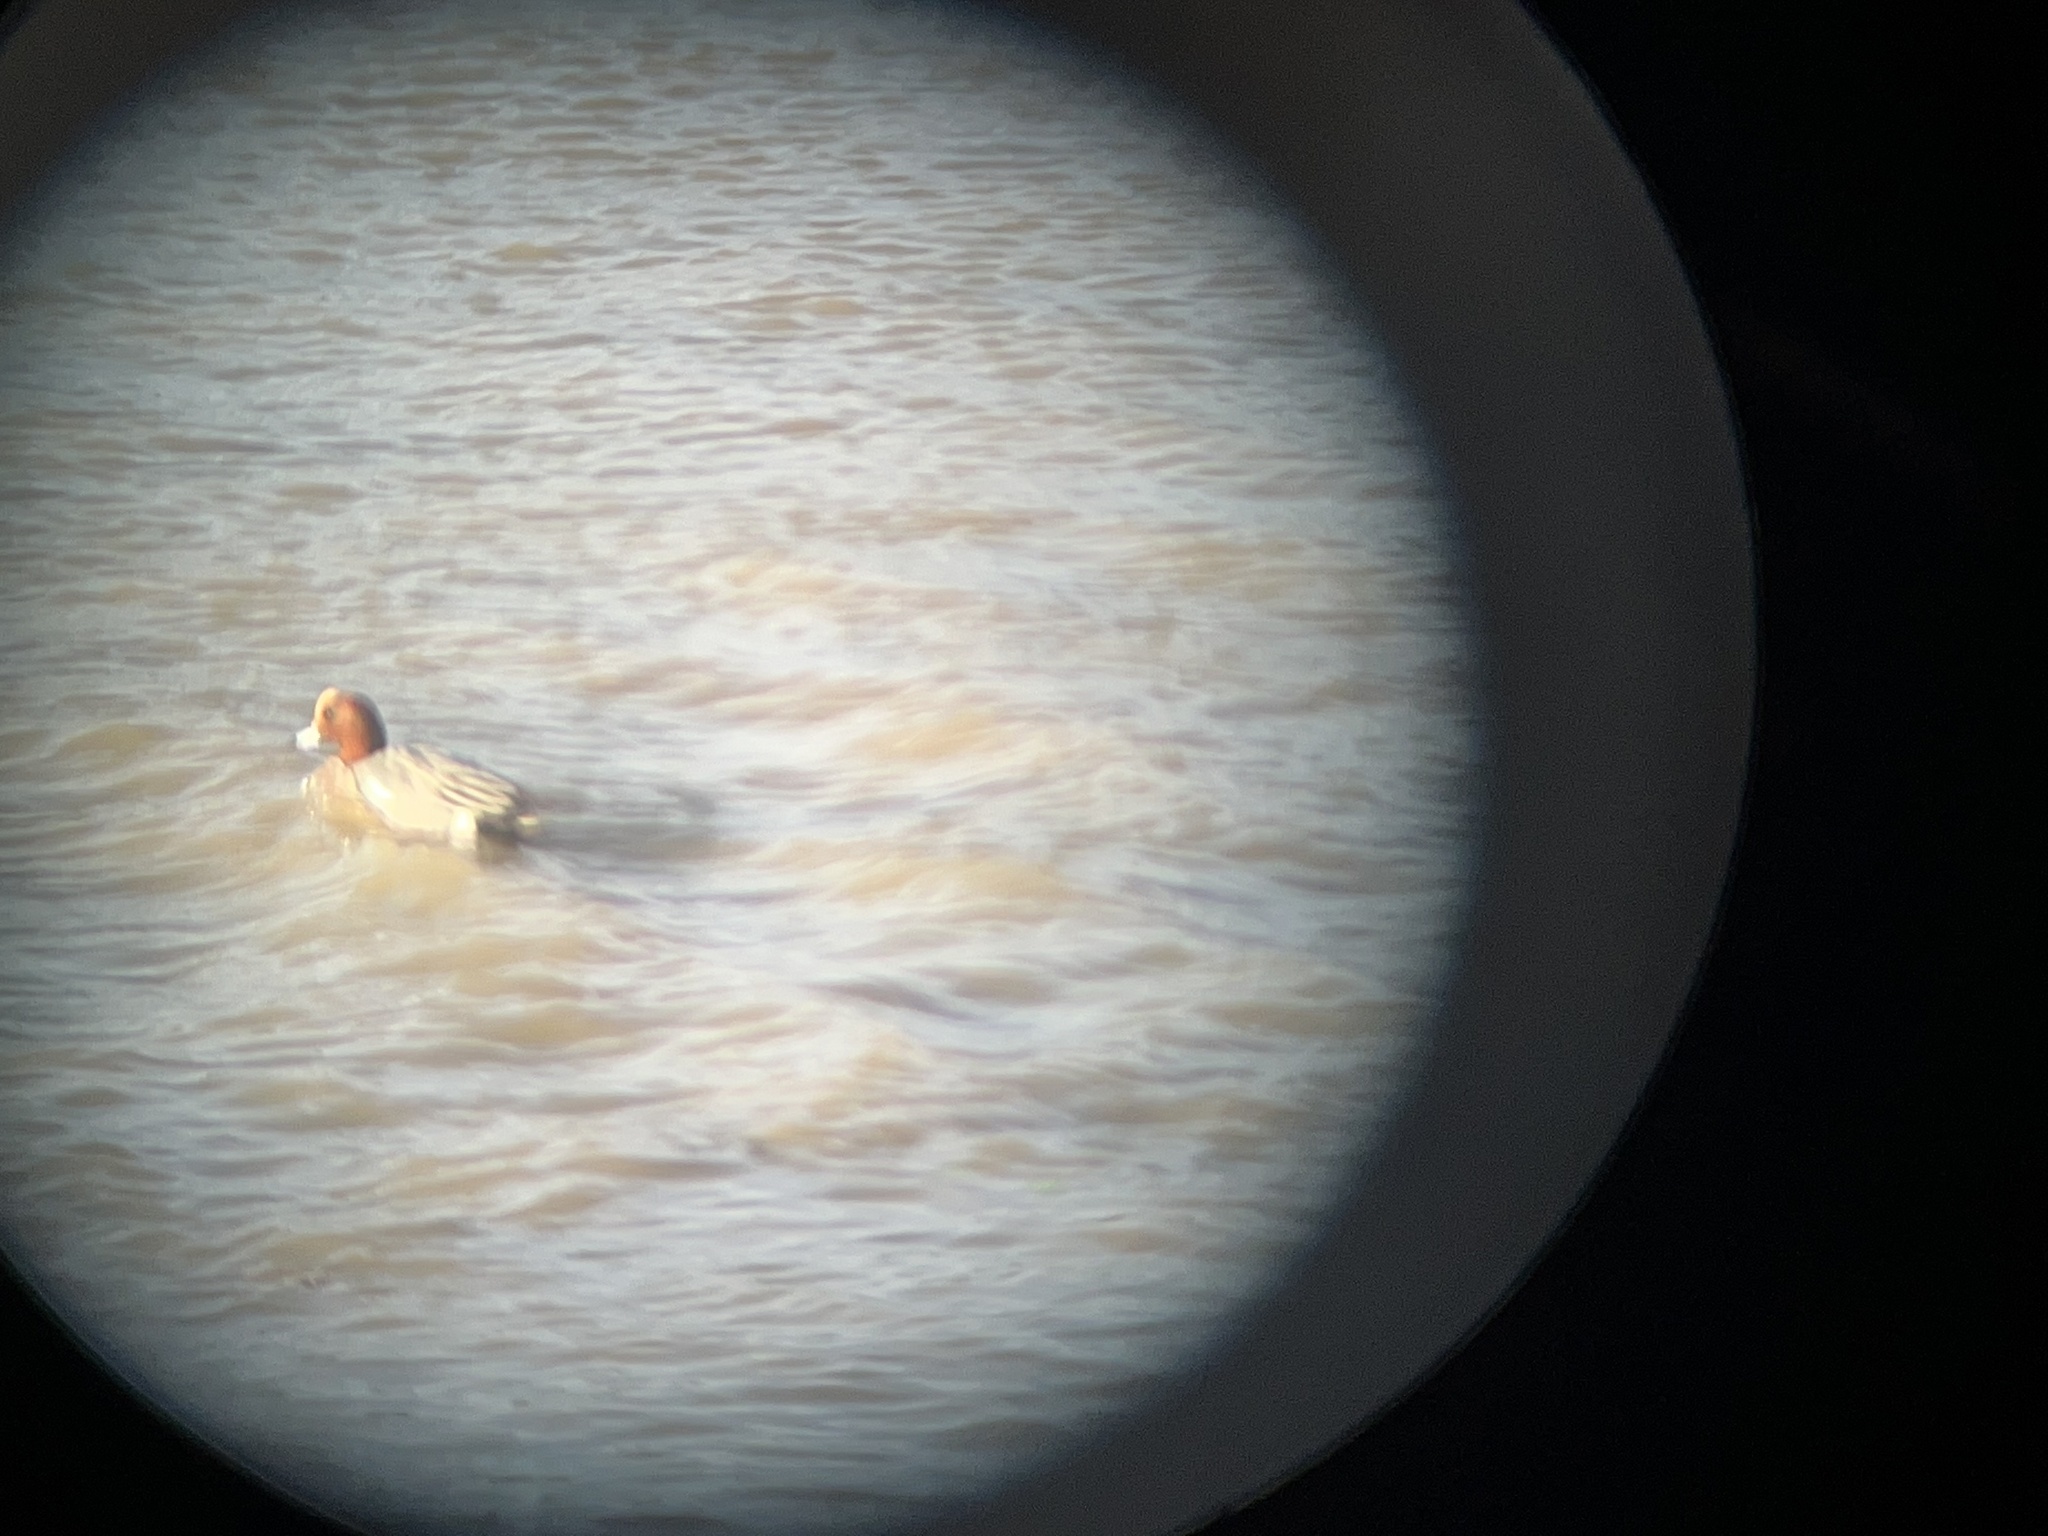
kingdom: Animalia
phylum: Chordata
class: Aves
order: Anseriformes
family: Anatidae
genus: Mareca
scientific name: Mareca penelope
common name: Eurasian wigeon
